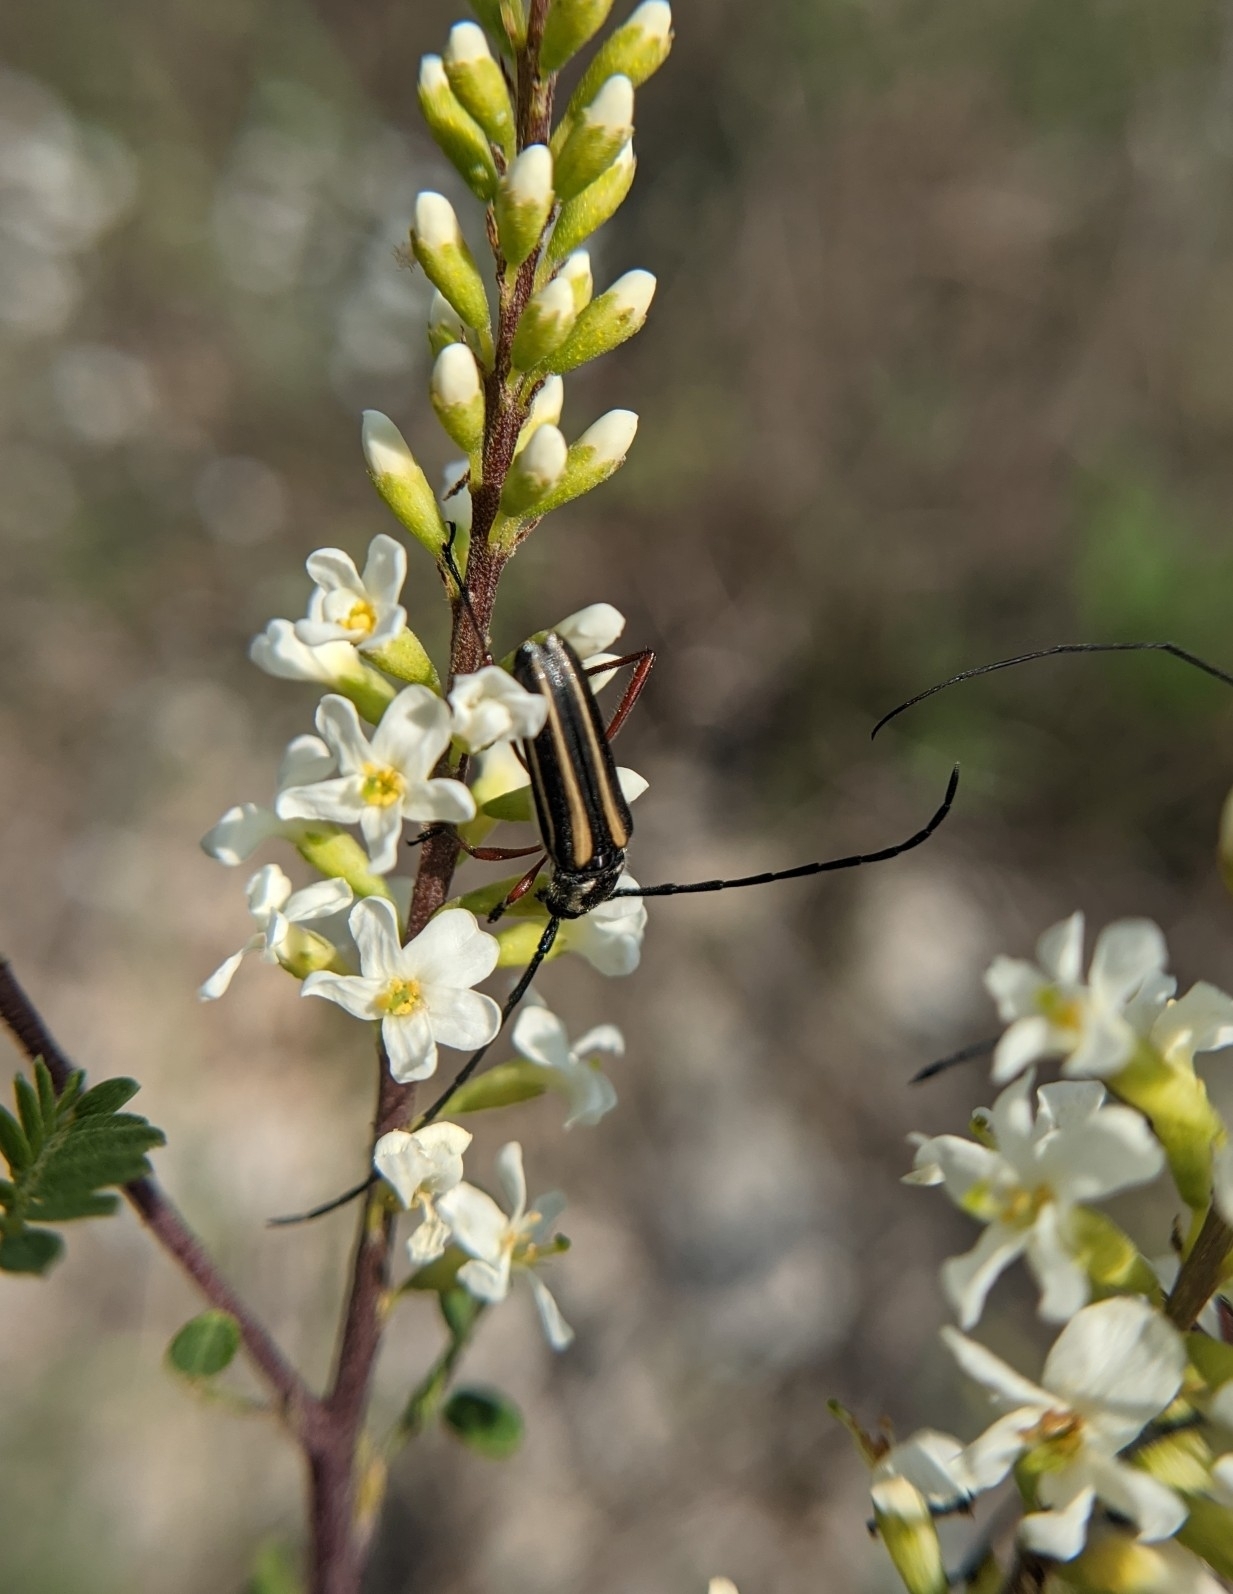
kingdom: Animalia
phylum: Arthropoda
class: Insecta
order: Coleoptera
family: Cerambycidae
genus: Sphaenothecus
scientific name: Sphaenothecus bilineatus
